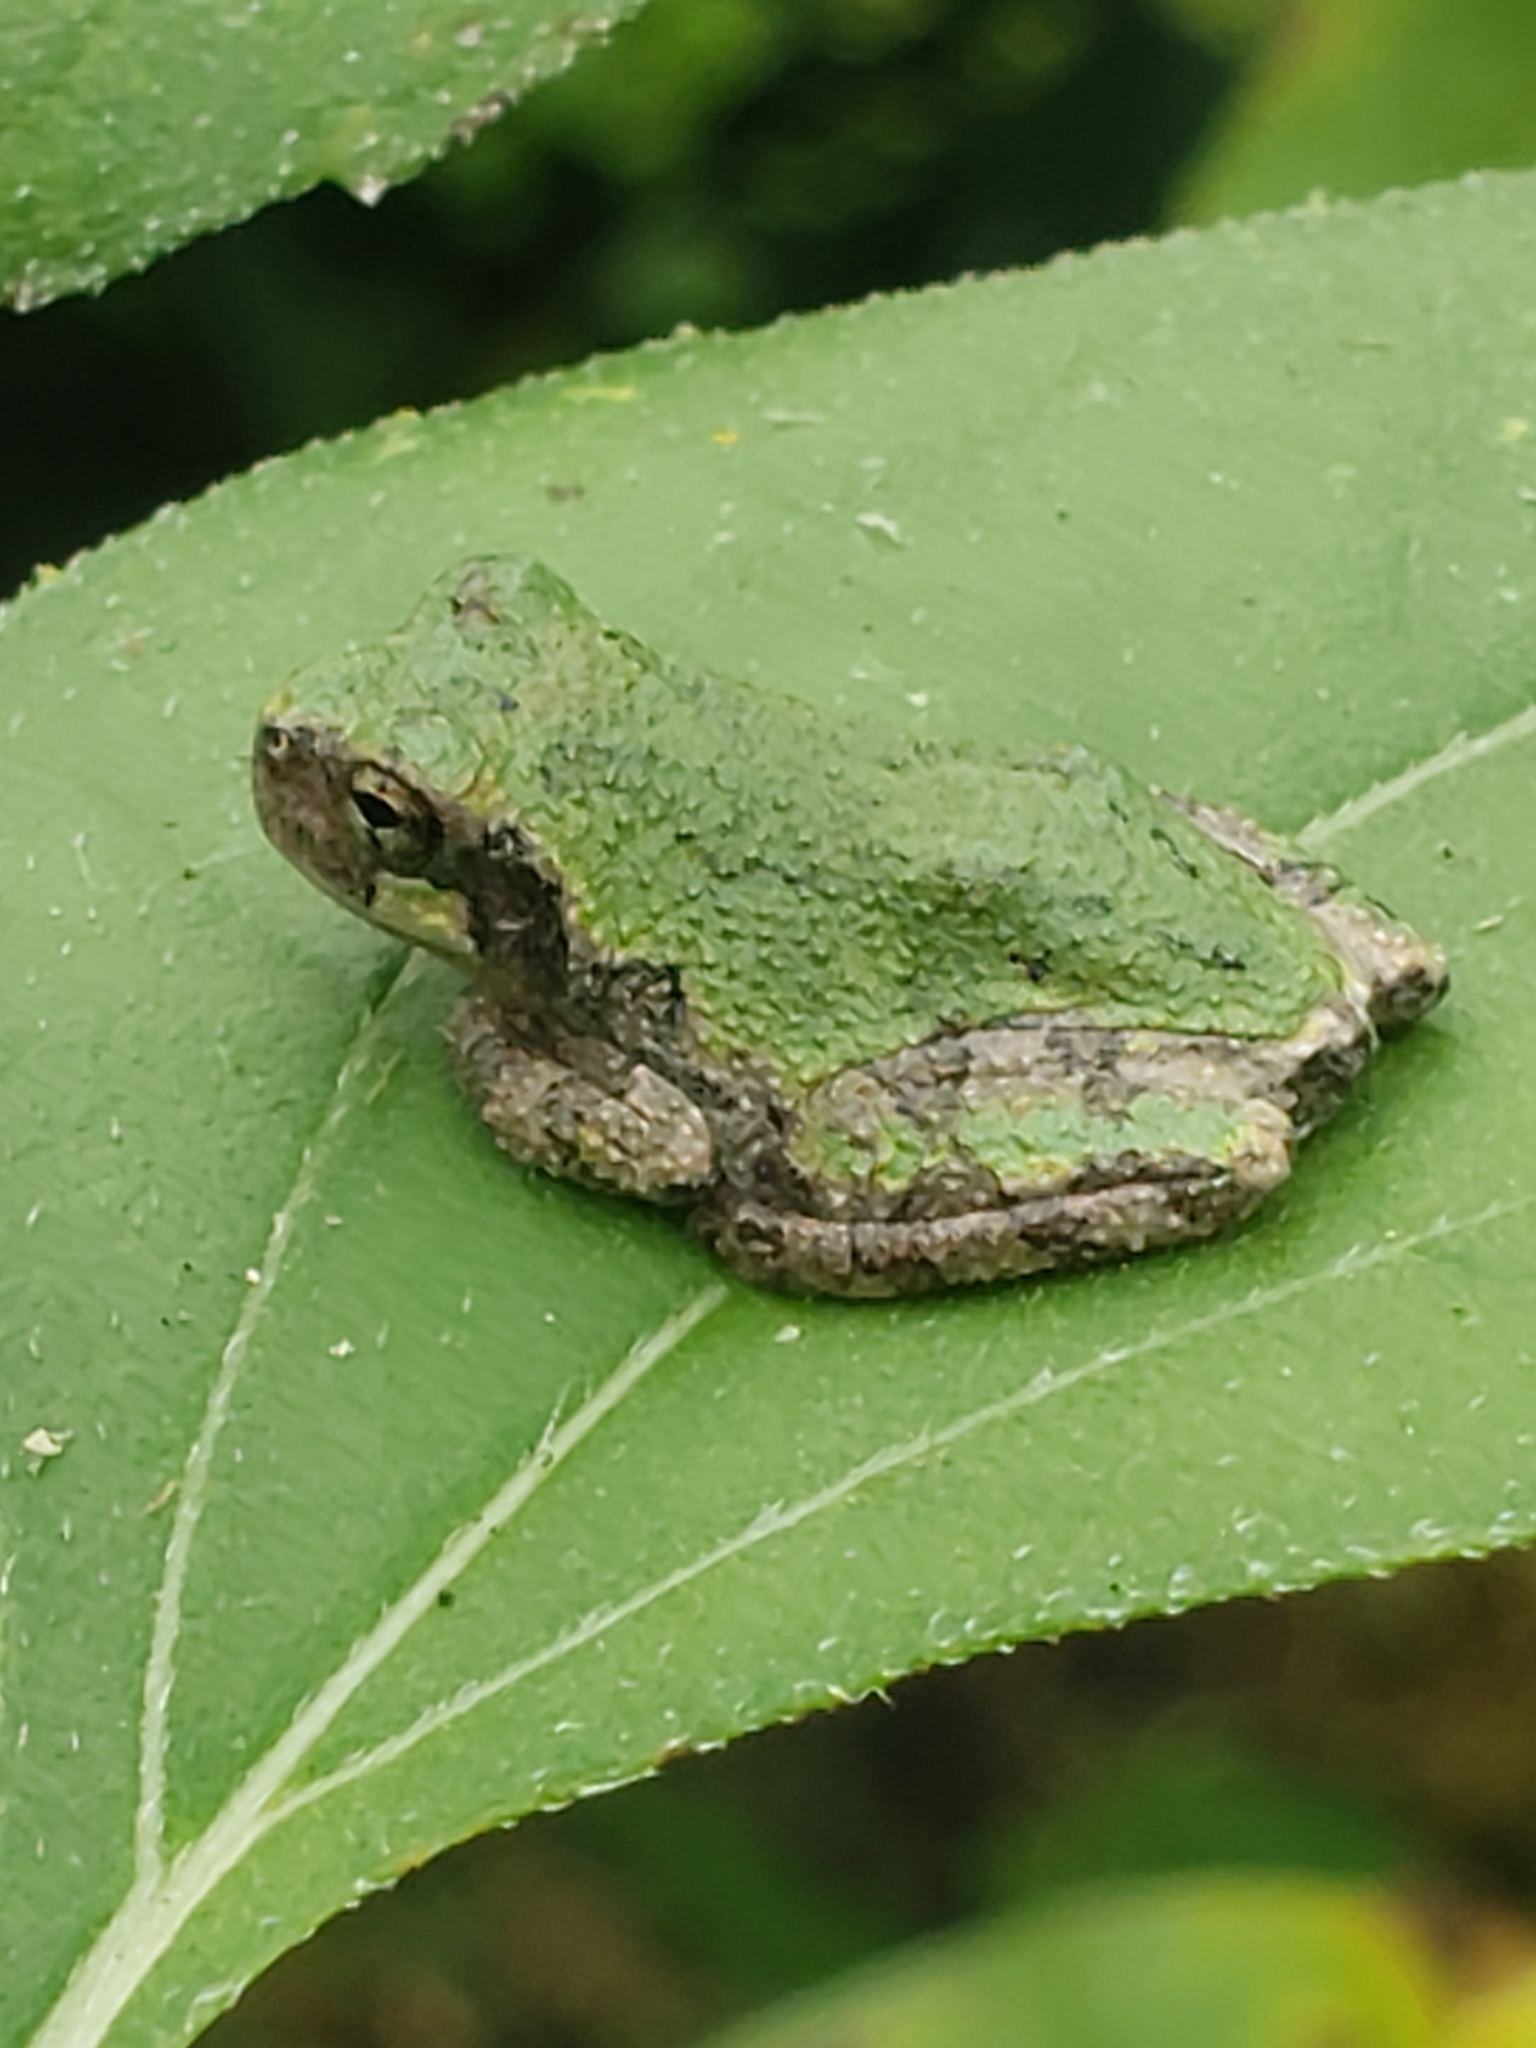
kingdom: Animalia
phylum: Chordata
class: Amphibia
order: Anura
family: Hylidae
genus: Hyla
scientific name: Hyla
